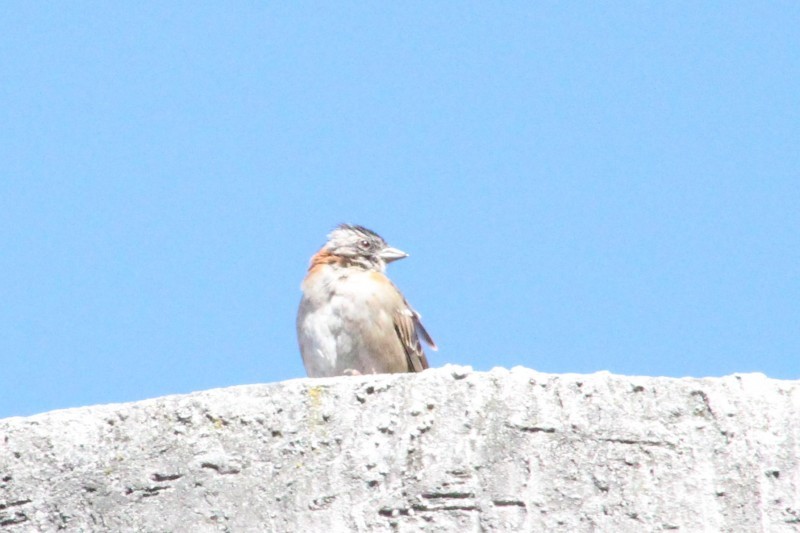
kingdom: Animalia
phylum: Chordata
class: Aves
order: Passeriformes
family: Passerellidae
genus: Zonotrichia
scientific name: Zonotrichia capensis
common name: Rufous-collared sparrow
